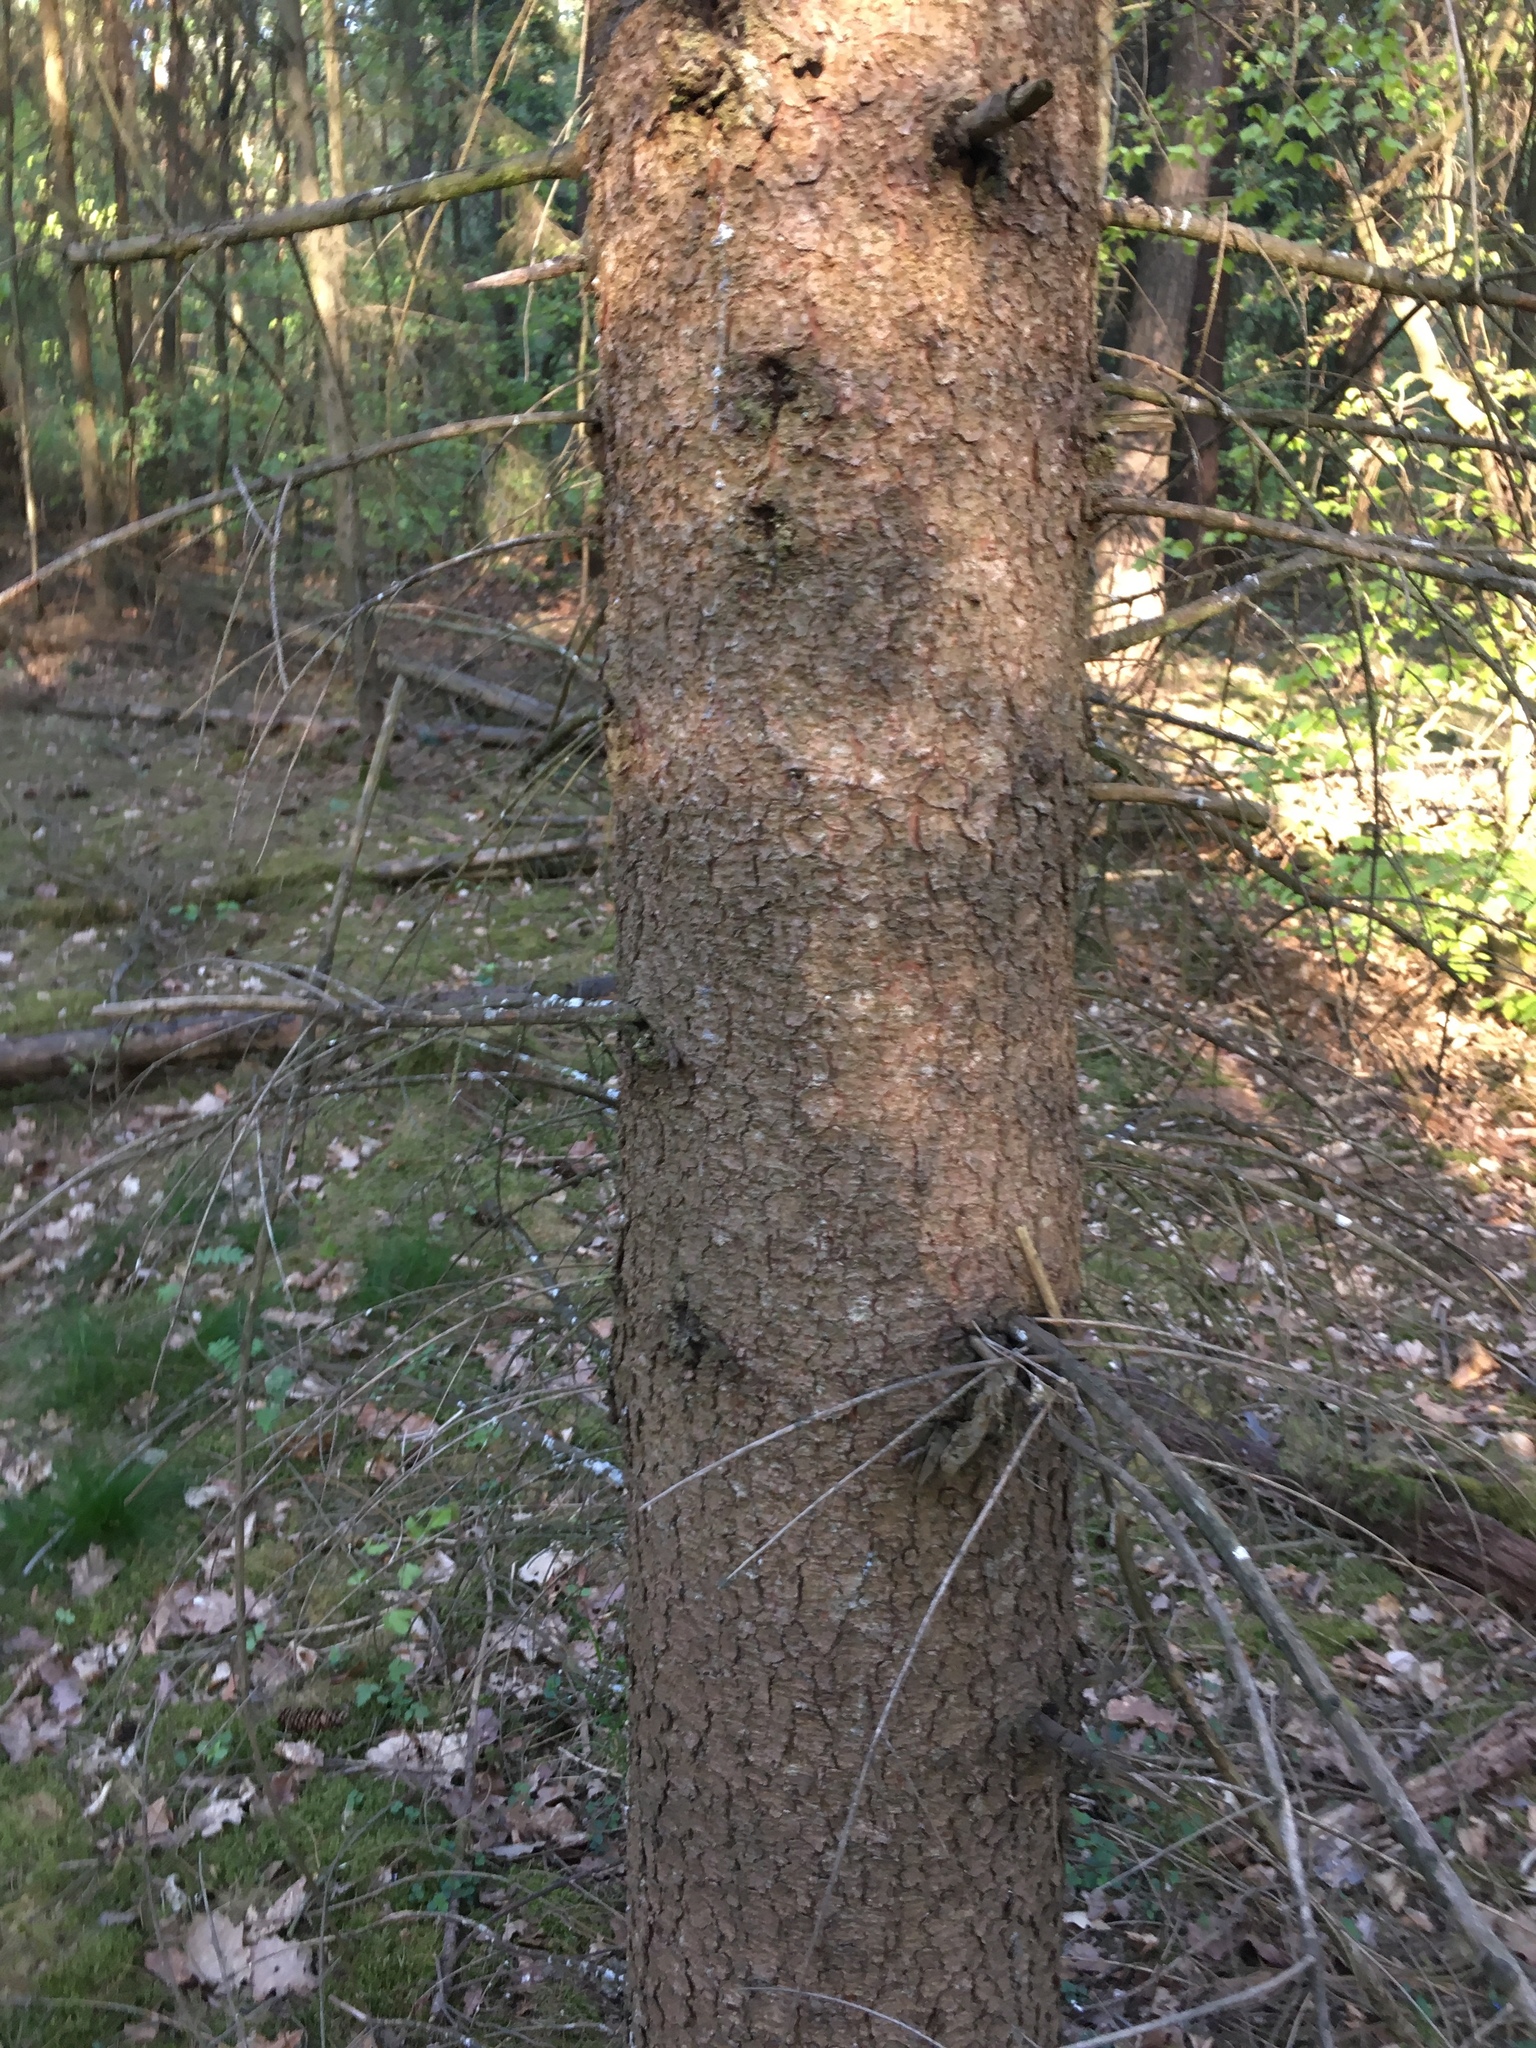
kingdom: Plantae
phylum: Tracheophyta
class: Pinopsida
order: Pinales
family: Pinaceae
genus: Picea
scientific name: Picea abies
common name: Norway spruce
